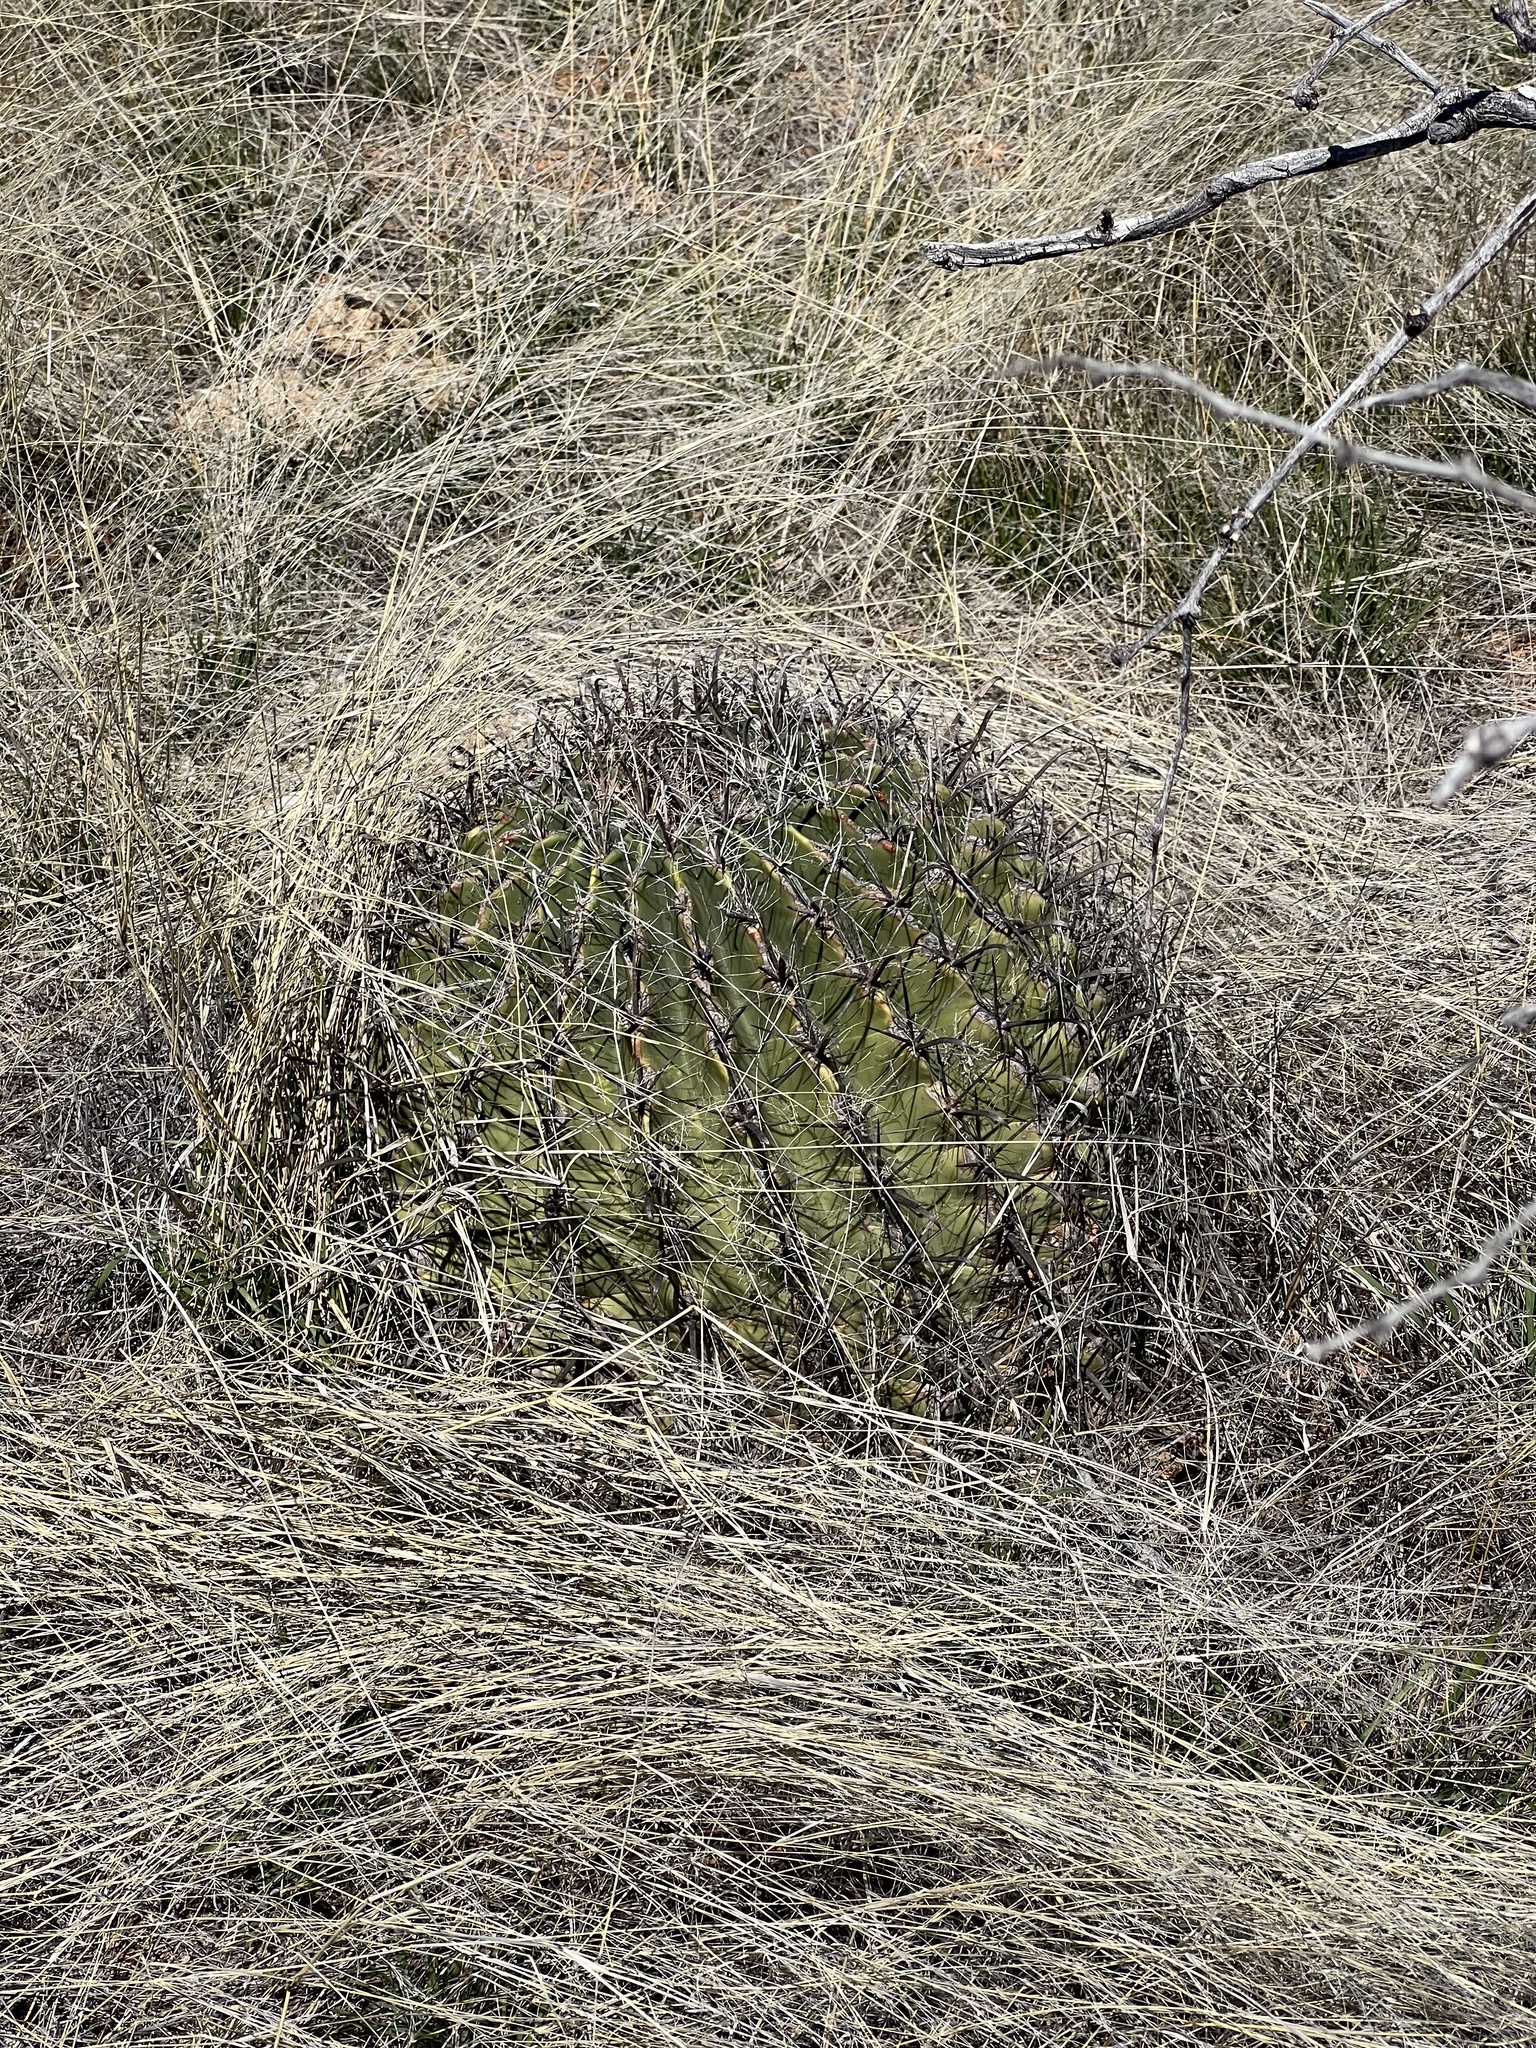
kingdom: Plantae
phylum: Tracheophyta
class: Magnoliopsida
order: Caryophyllales
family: Cactaceae
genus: Ferocactus
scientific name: Ferocactus wislizeni
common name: Candy barrel cactus
